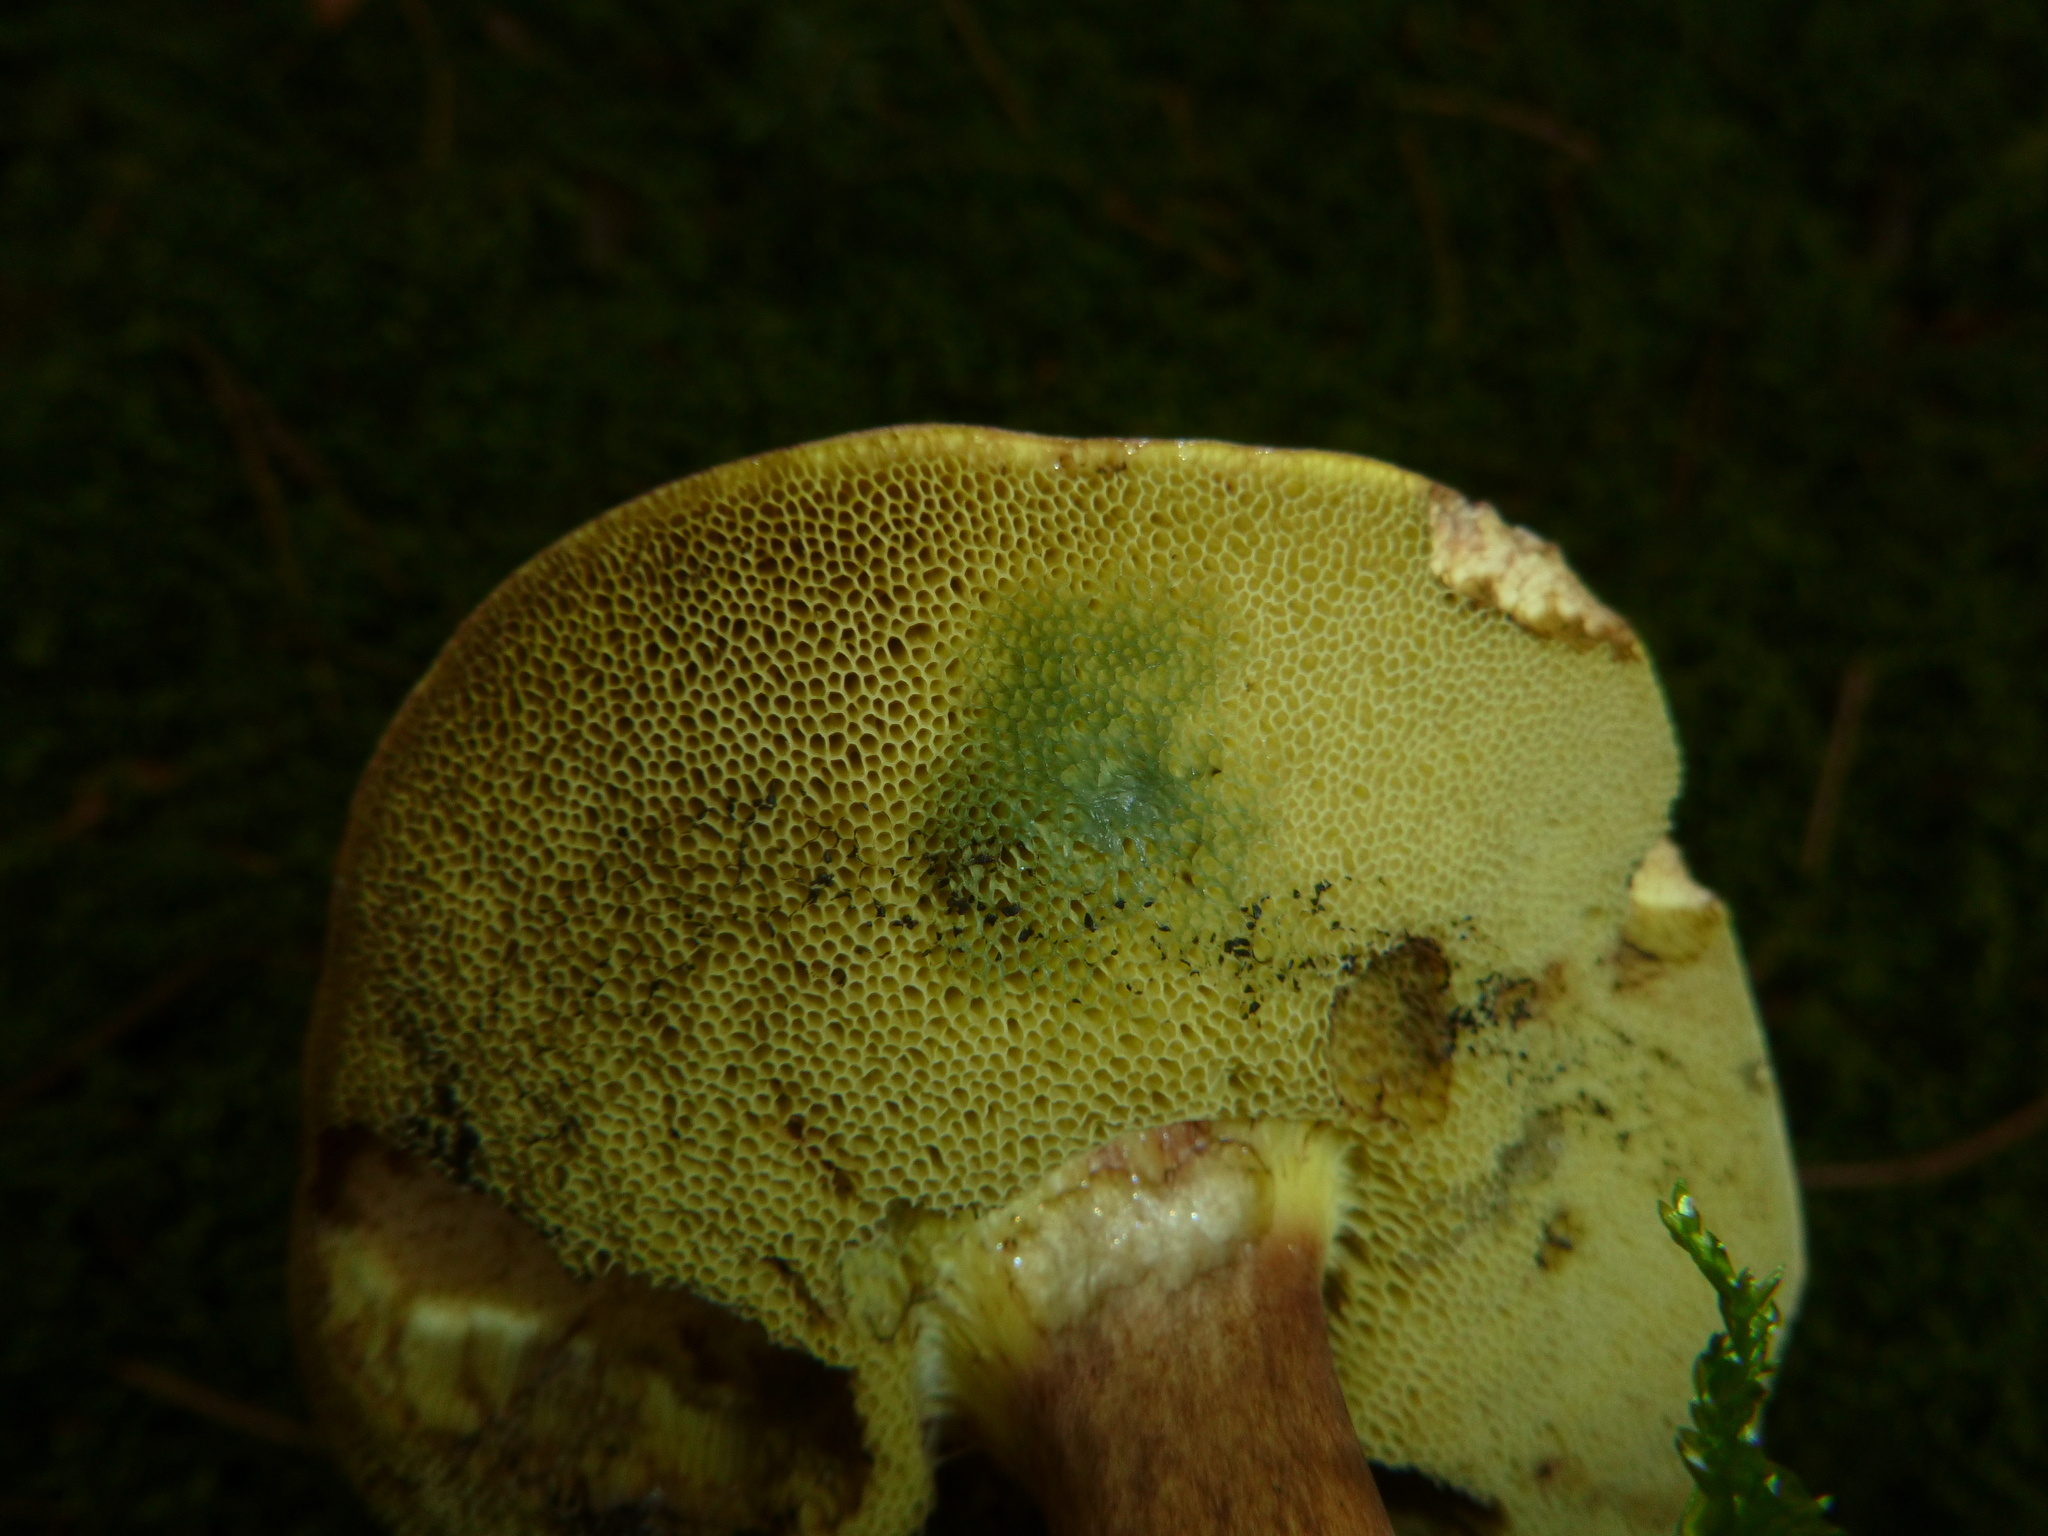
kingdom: Fungi
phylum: Basidiomycota
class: Agaricomycetes
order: Boletales
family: Boletaceae
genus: Imleria
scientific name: Imleria badia
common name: Bay bolete
